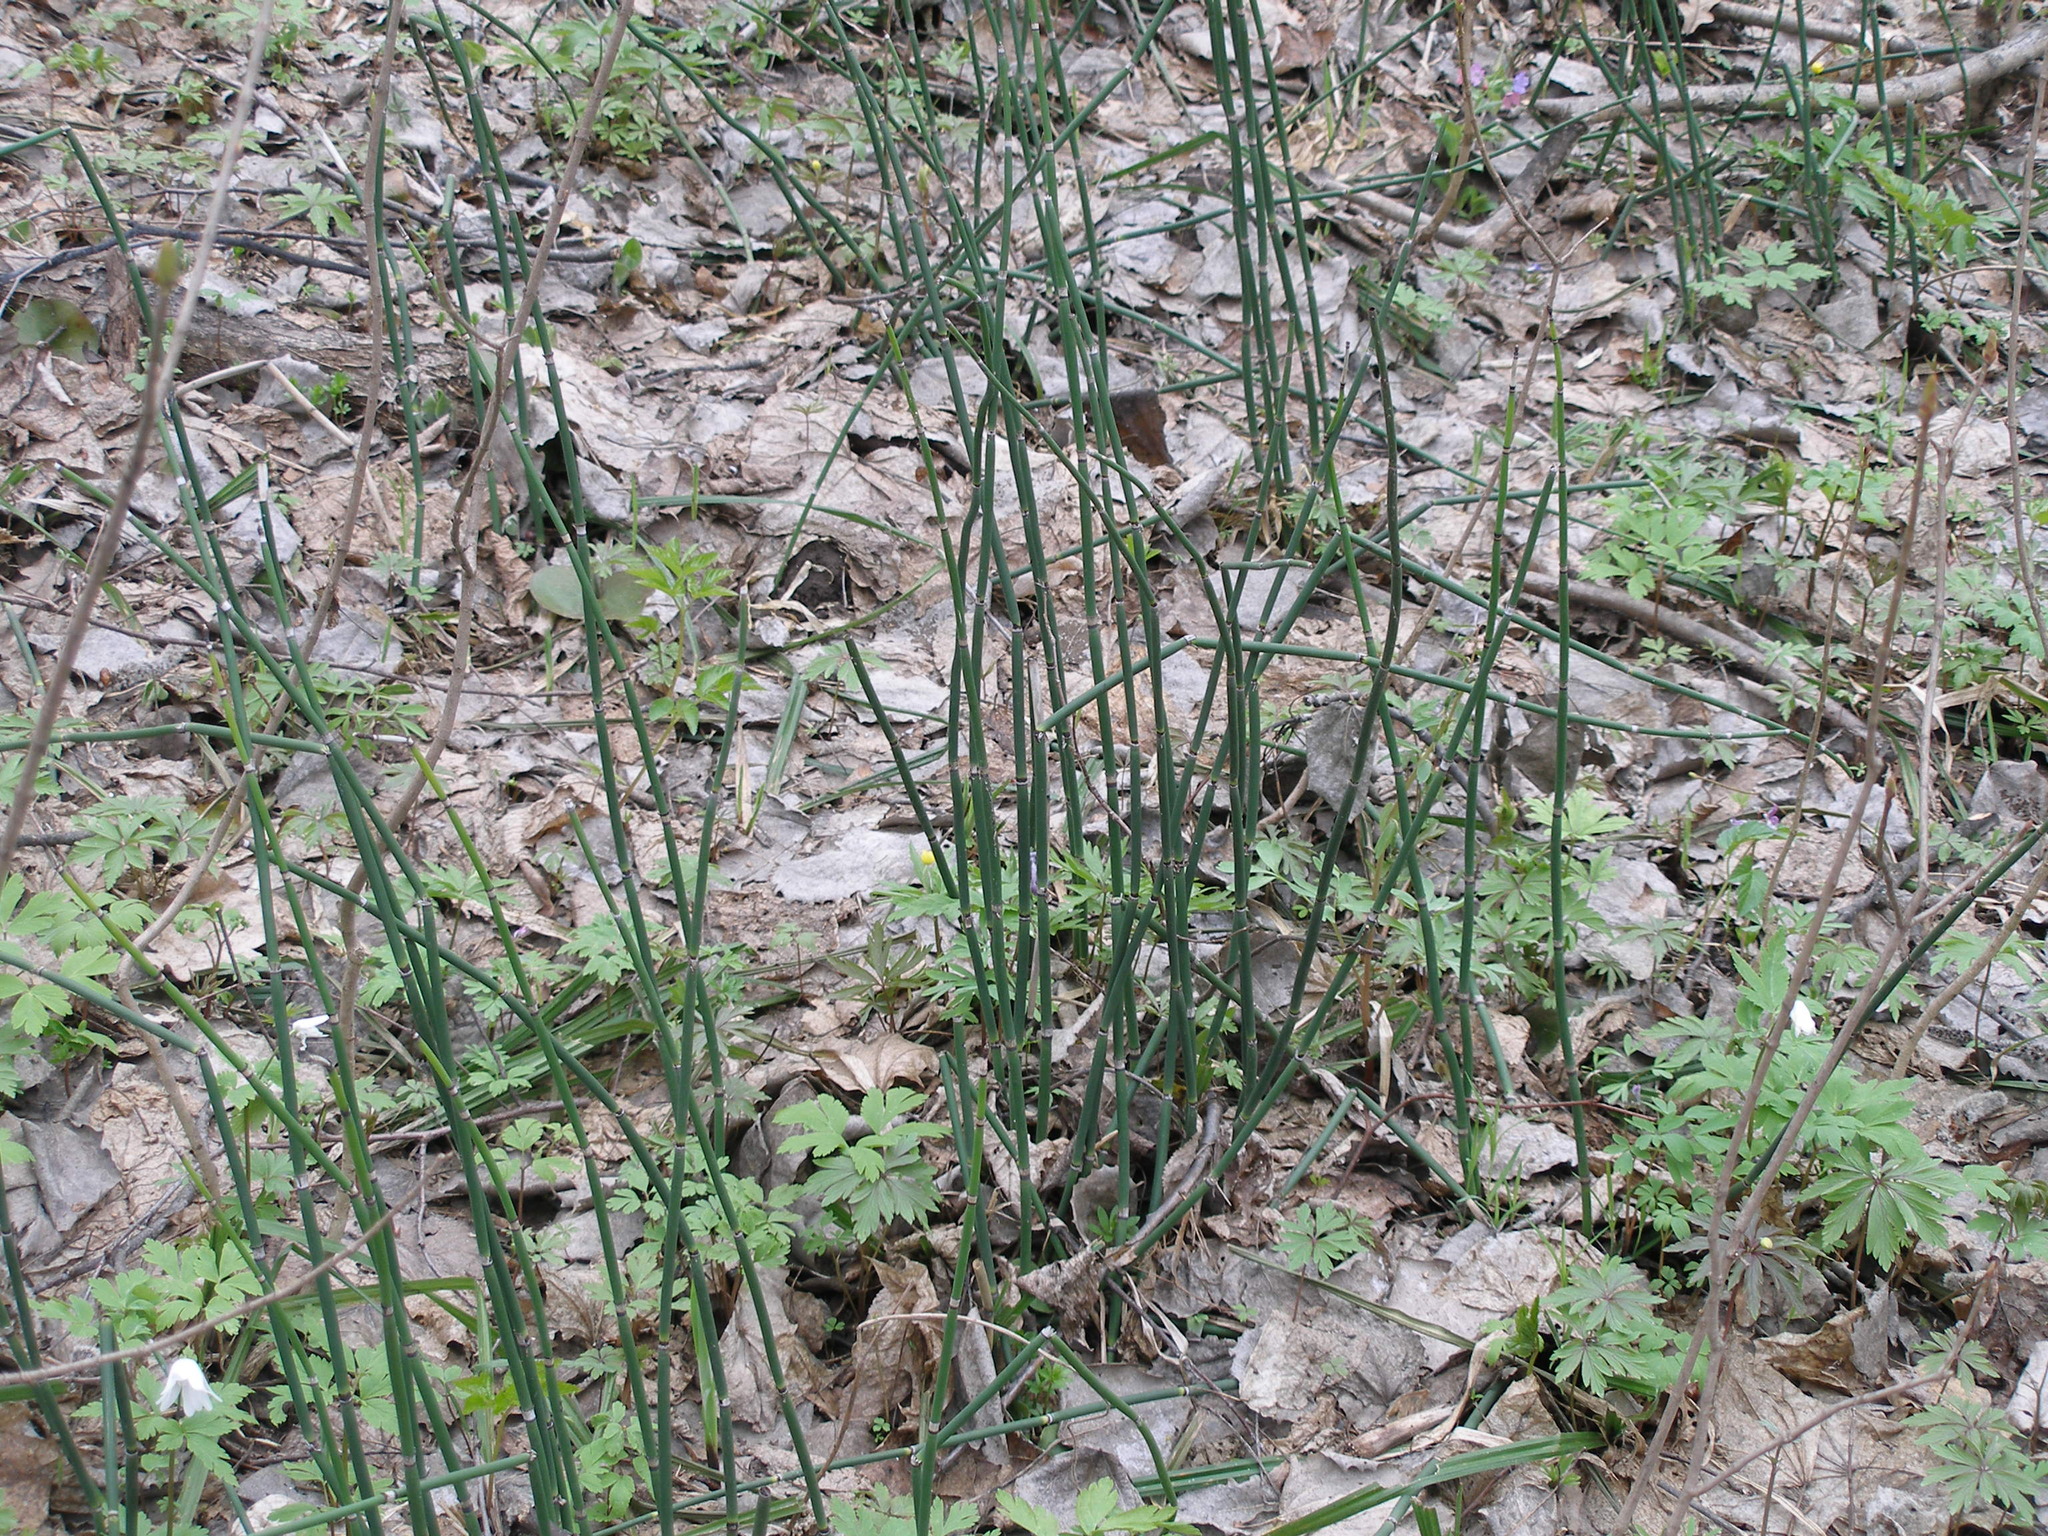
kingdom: Plantae
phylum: Tracheophyta
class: Polypodiopsida
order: Equisetales
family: Equisetaceae
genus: Equisetum
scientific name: Equisetum hyemale
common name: Rough horsetail
